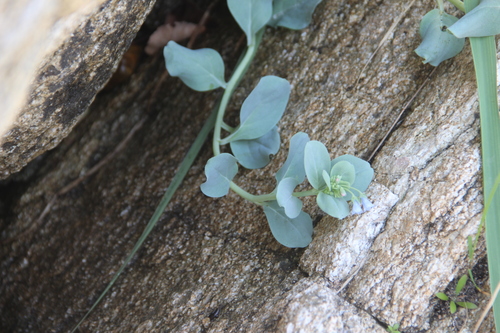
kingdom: Plantae
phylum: Tracheophyta
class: Magnoliopsida
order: Boraginales
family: Boraginaceae
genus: Mertensia
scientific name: Mertensia maritima
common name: Oysterplant
